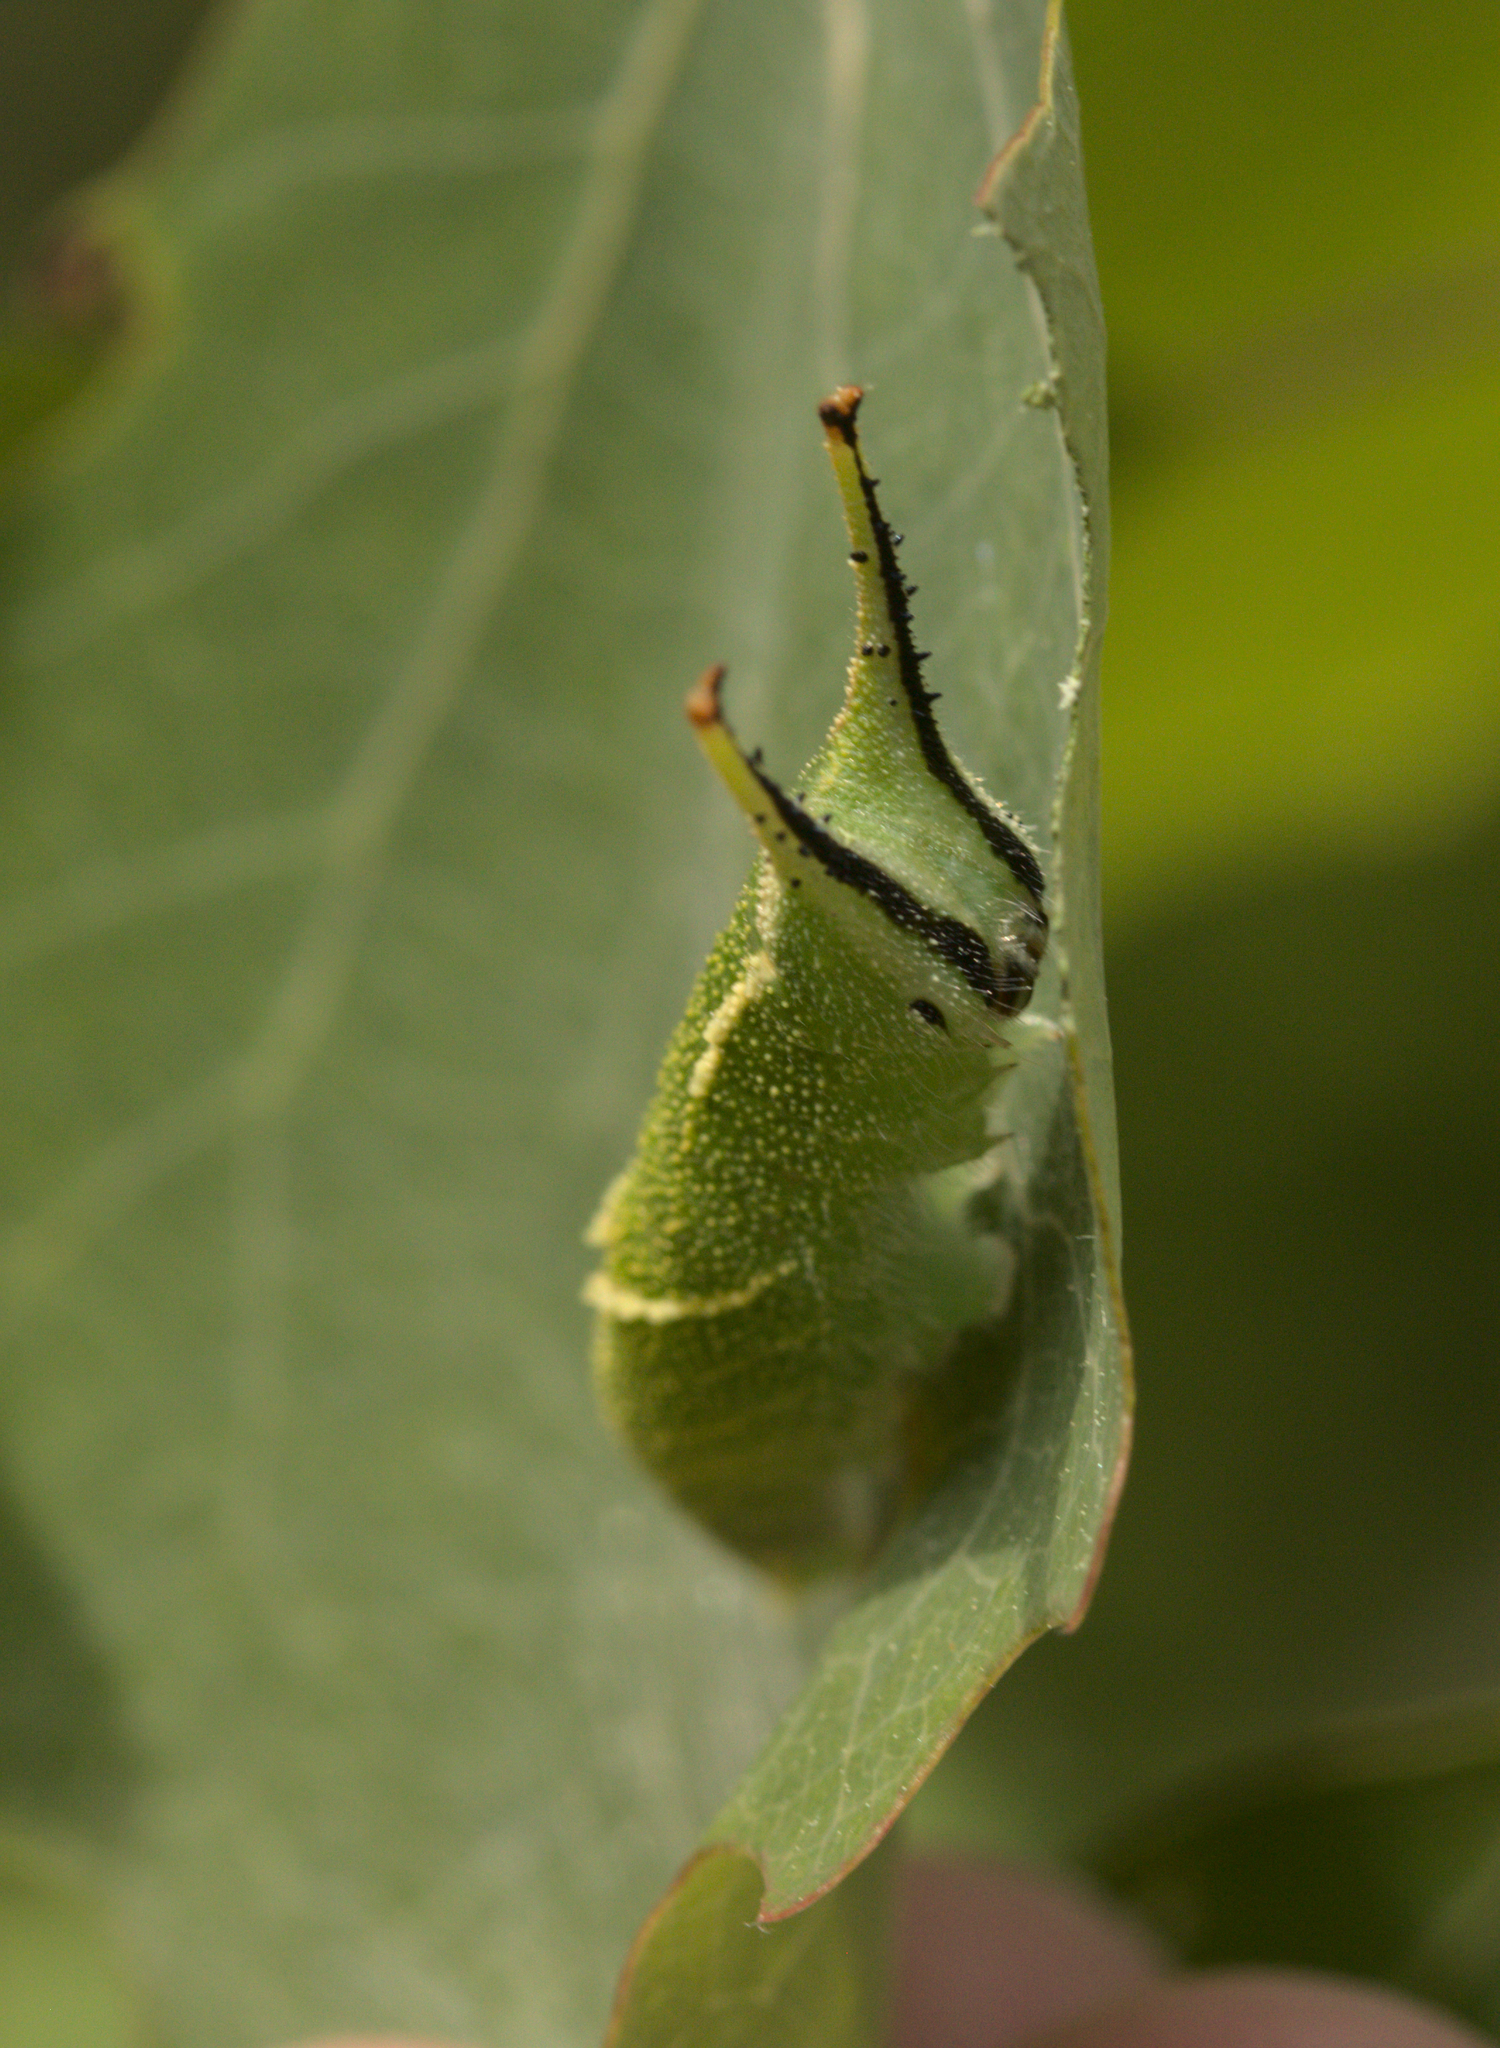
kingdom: Animalia
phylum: Arthropoda
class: Insecta
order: Lepidoptera
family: Nymphalidae
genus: Apatura
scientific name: Apatura ilia
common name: Lesser purple emperor
